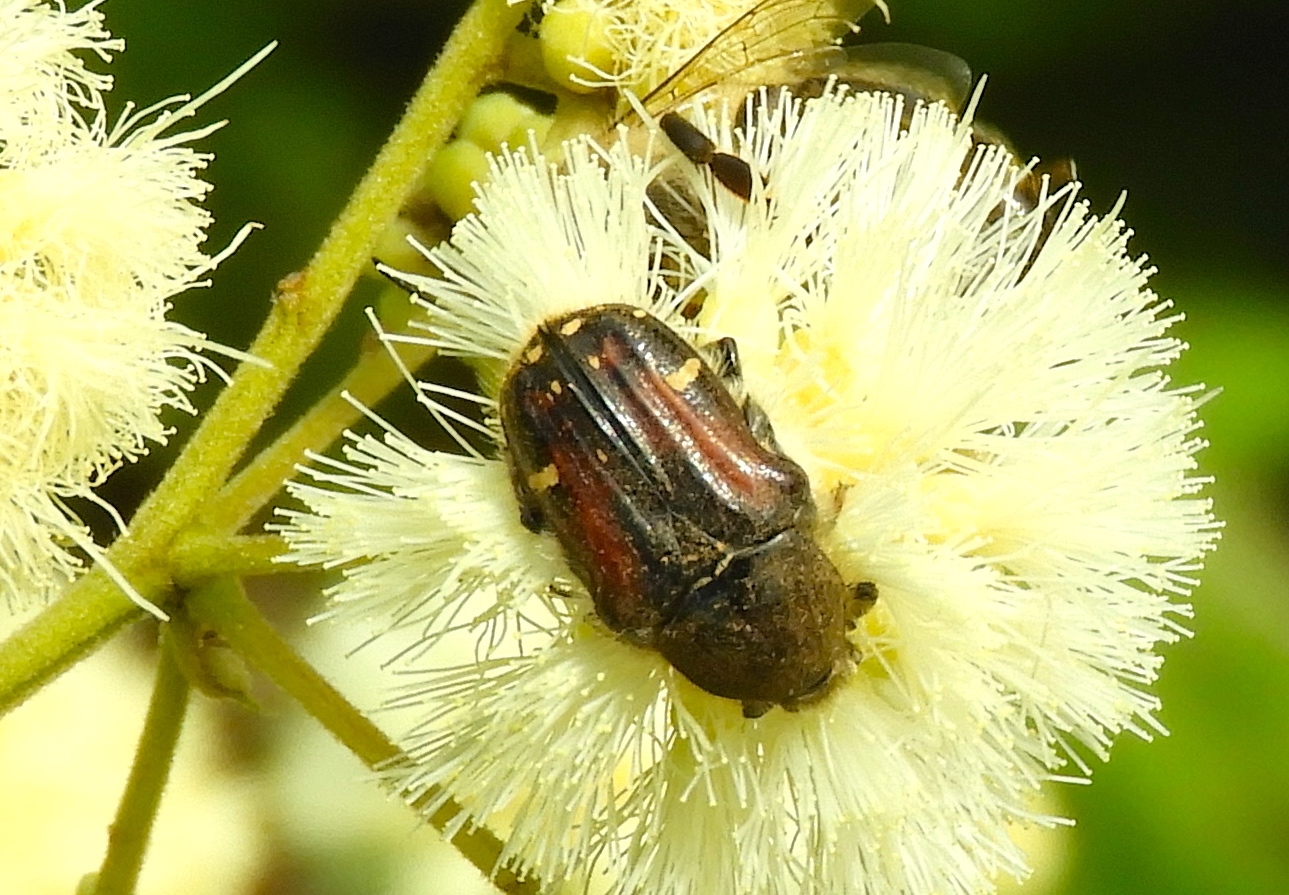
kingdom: Animalia
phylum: Arthropoda
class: Insecta
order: Coleoptera
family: Scarabaeidae
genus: Euphoria
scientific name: Euphoria pulchella
